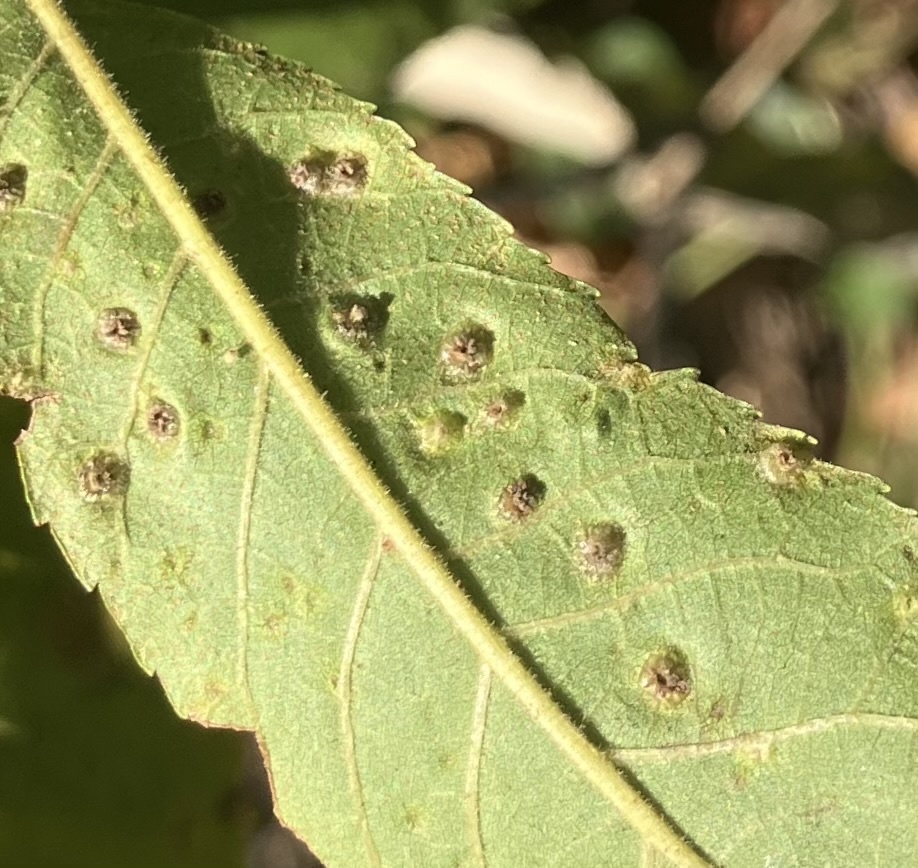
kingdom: Animalia
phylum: Arthropoda
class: Insecta
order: Hemiptera
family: Phylloxeridae
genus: Phylloxera
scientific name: Phylloxera caryae-semen
